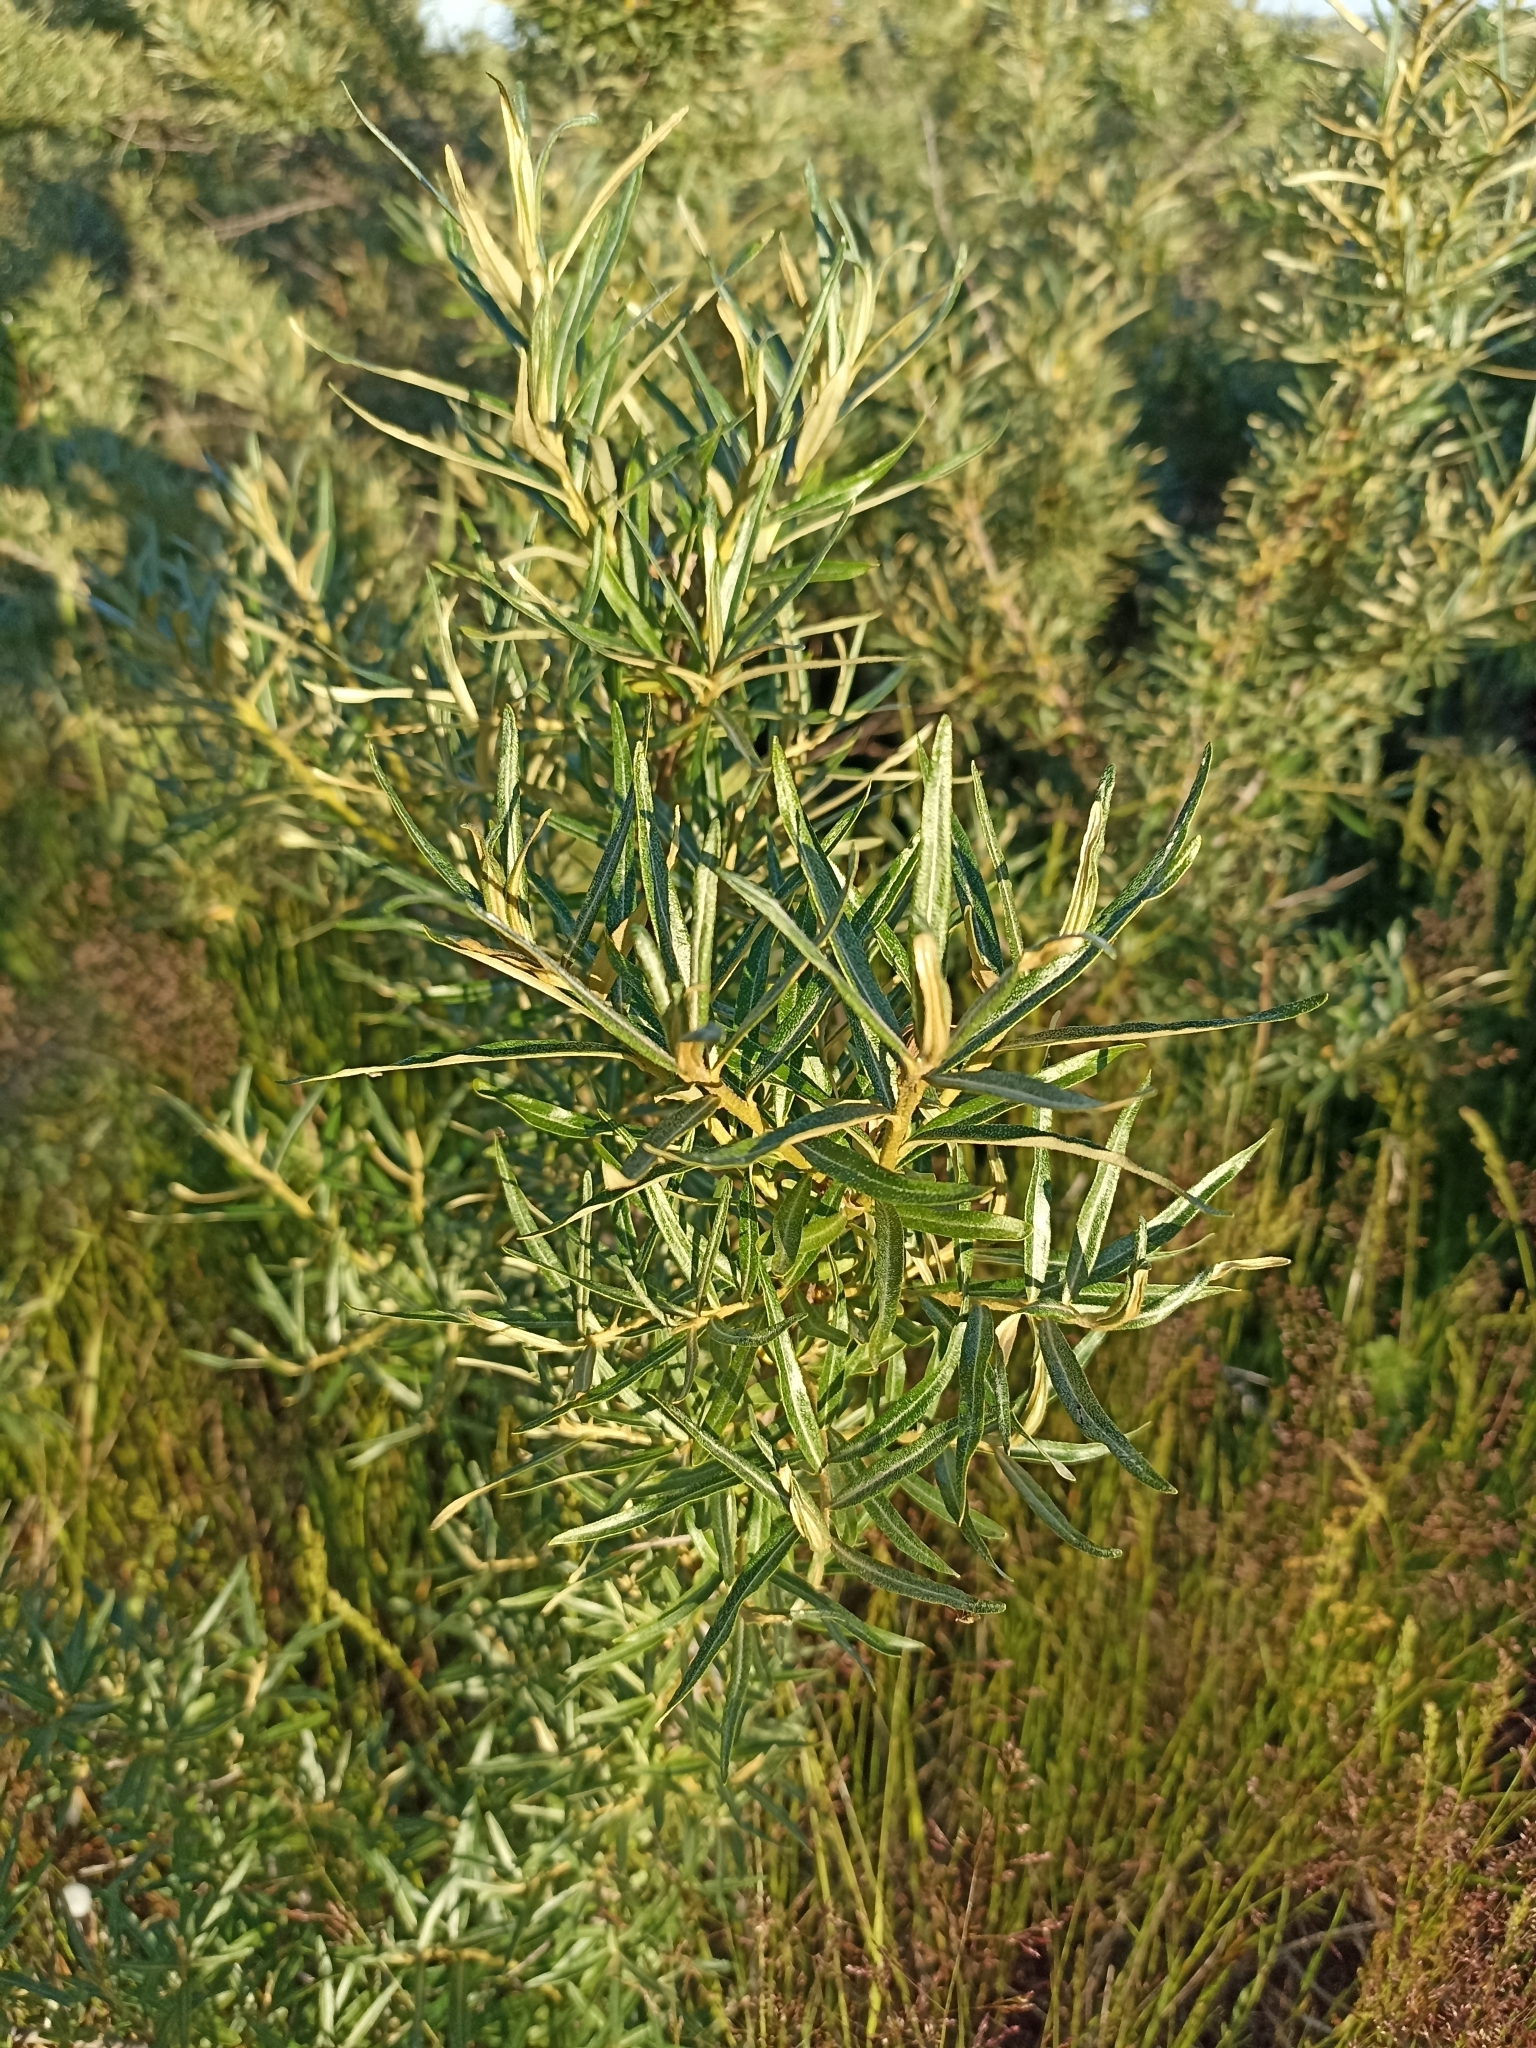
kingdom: Plantae
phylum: Tracheophyta
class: Magnoliopsida
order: Rosales
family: Elaeagnaceae
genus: Hippophae
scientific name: Hippophae rhamnoides
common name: Sea-buckthorn
